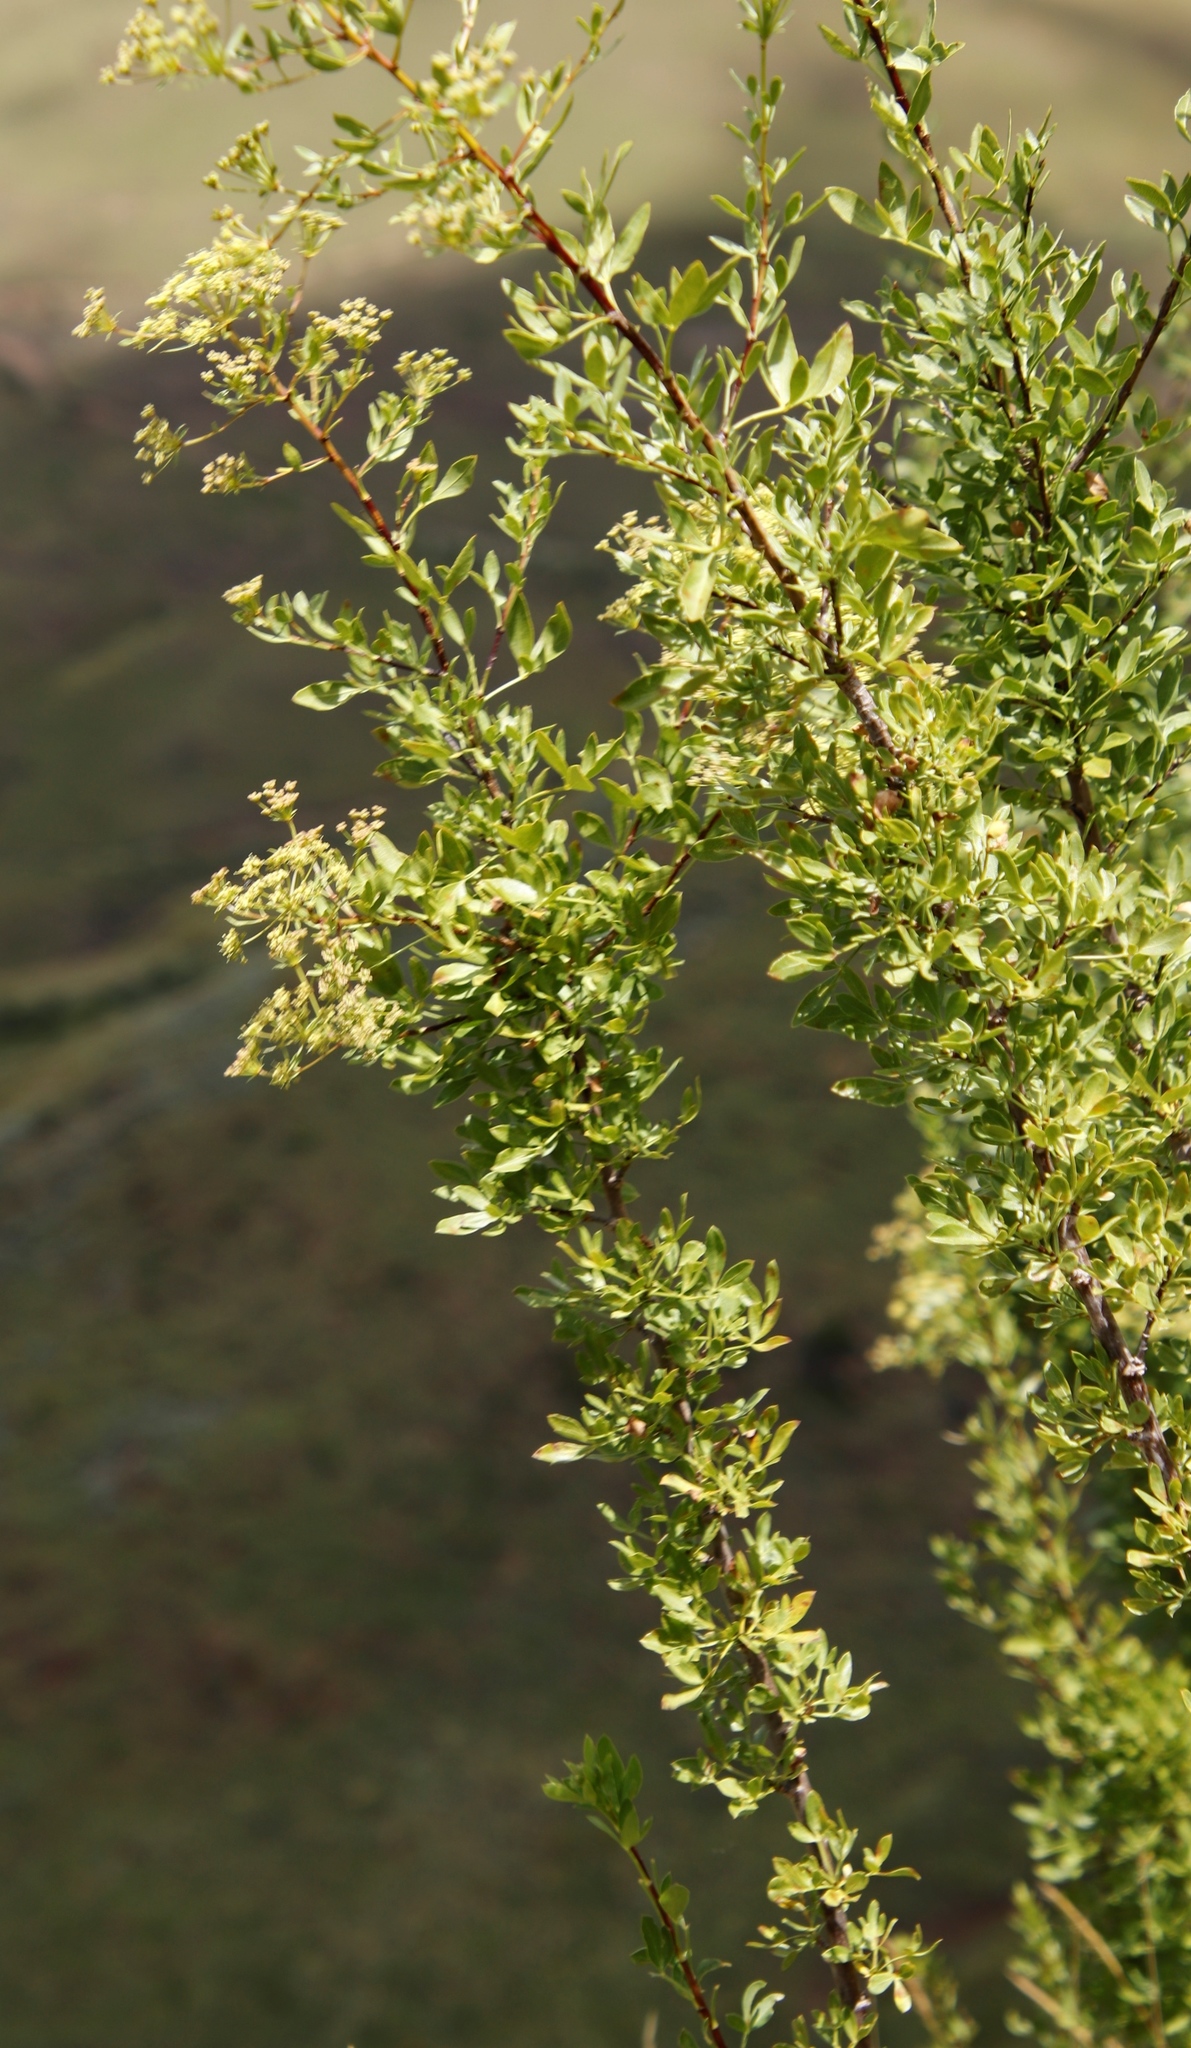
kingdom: Plantae
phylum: Tracheophyta
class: Magnoliopsida
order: Apiales
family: Apiaceae
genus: Polemannia
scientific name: Polemannia simplicior
